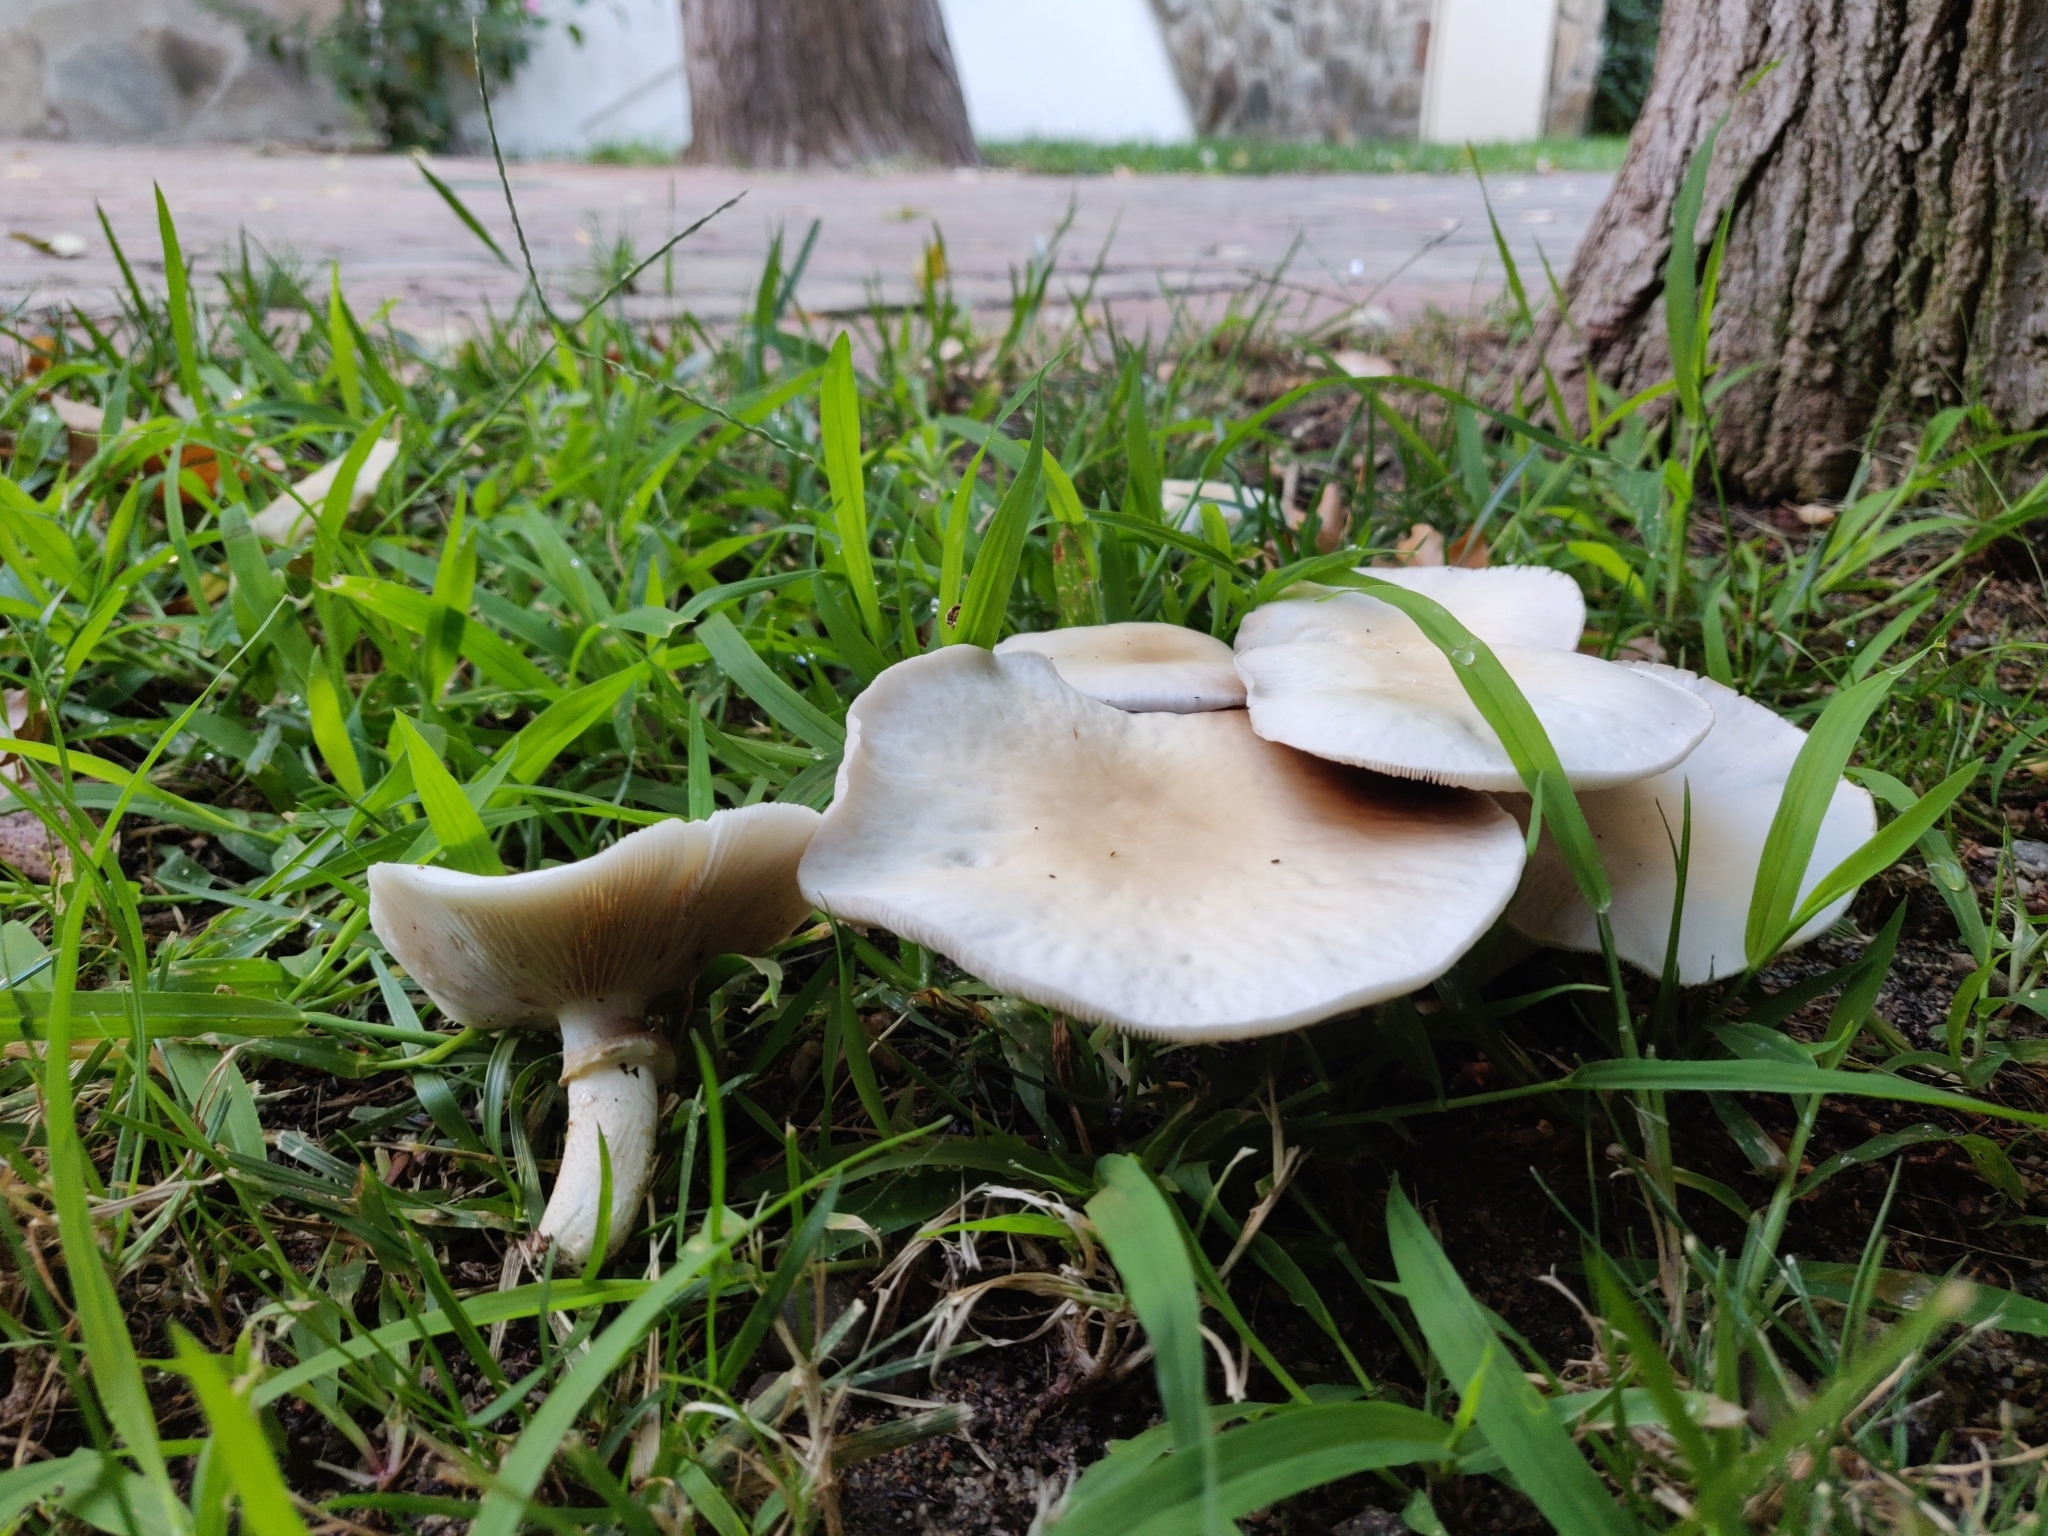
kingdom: Fungi
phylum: Basidiomycota
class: Agaricomycetes
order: Agaricales
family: Tubariaceae
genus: Cyclocybe
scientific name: Cyclocybe cylindracea
